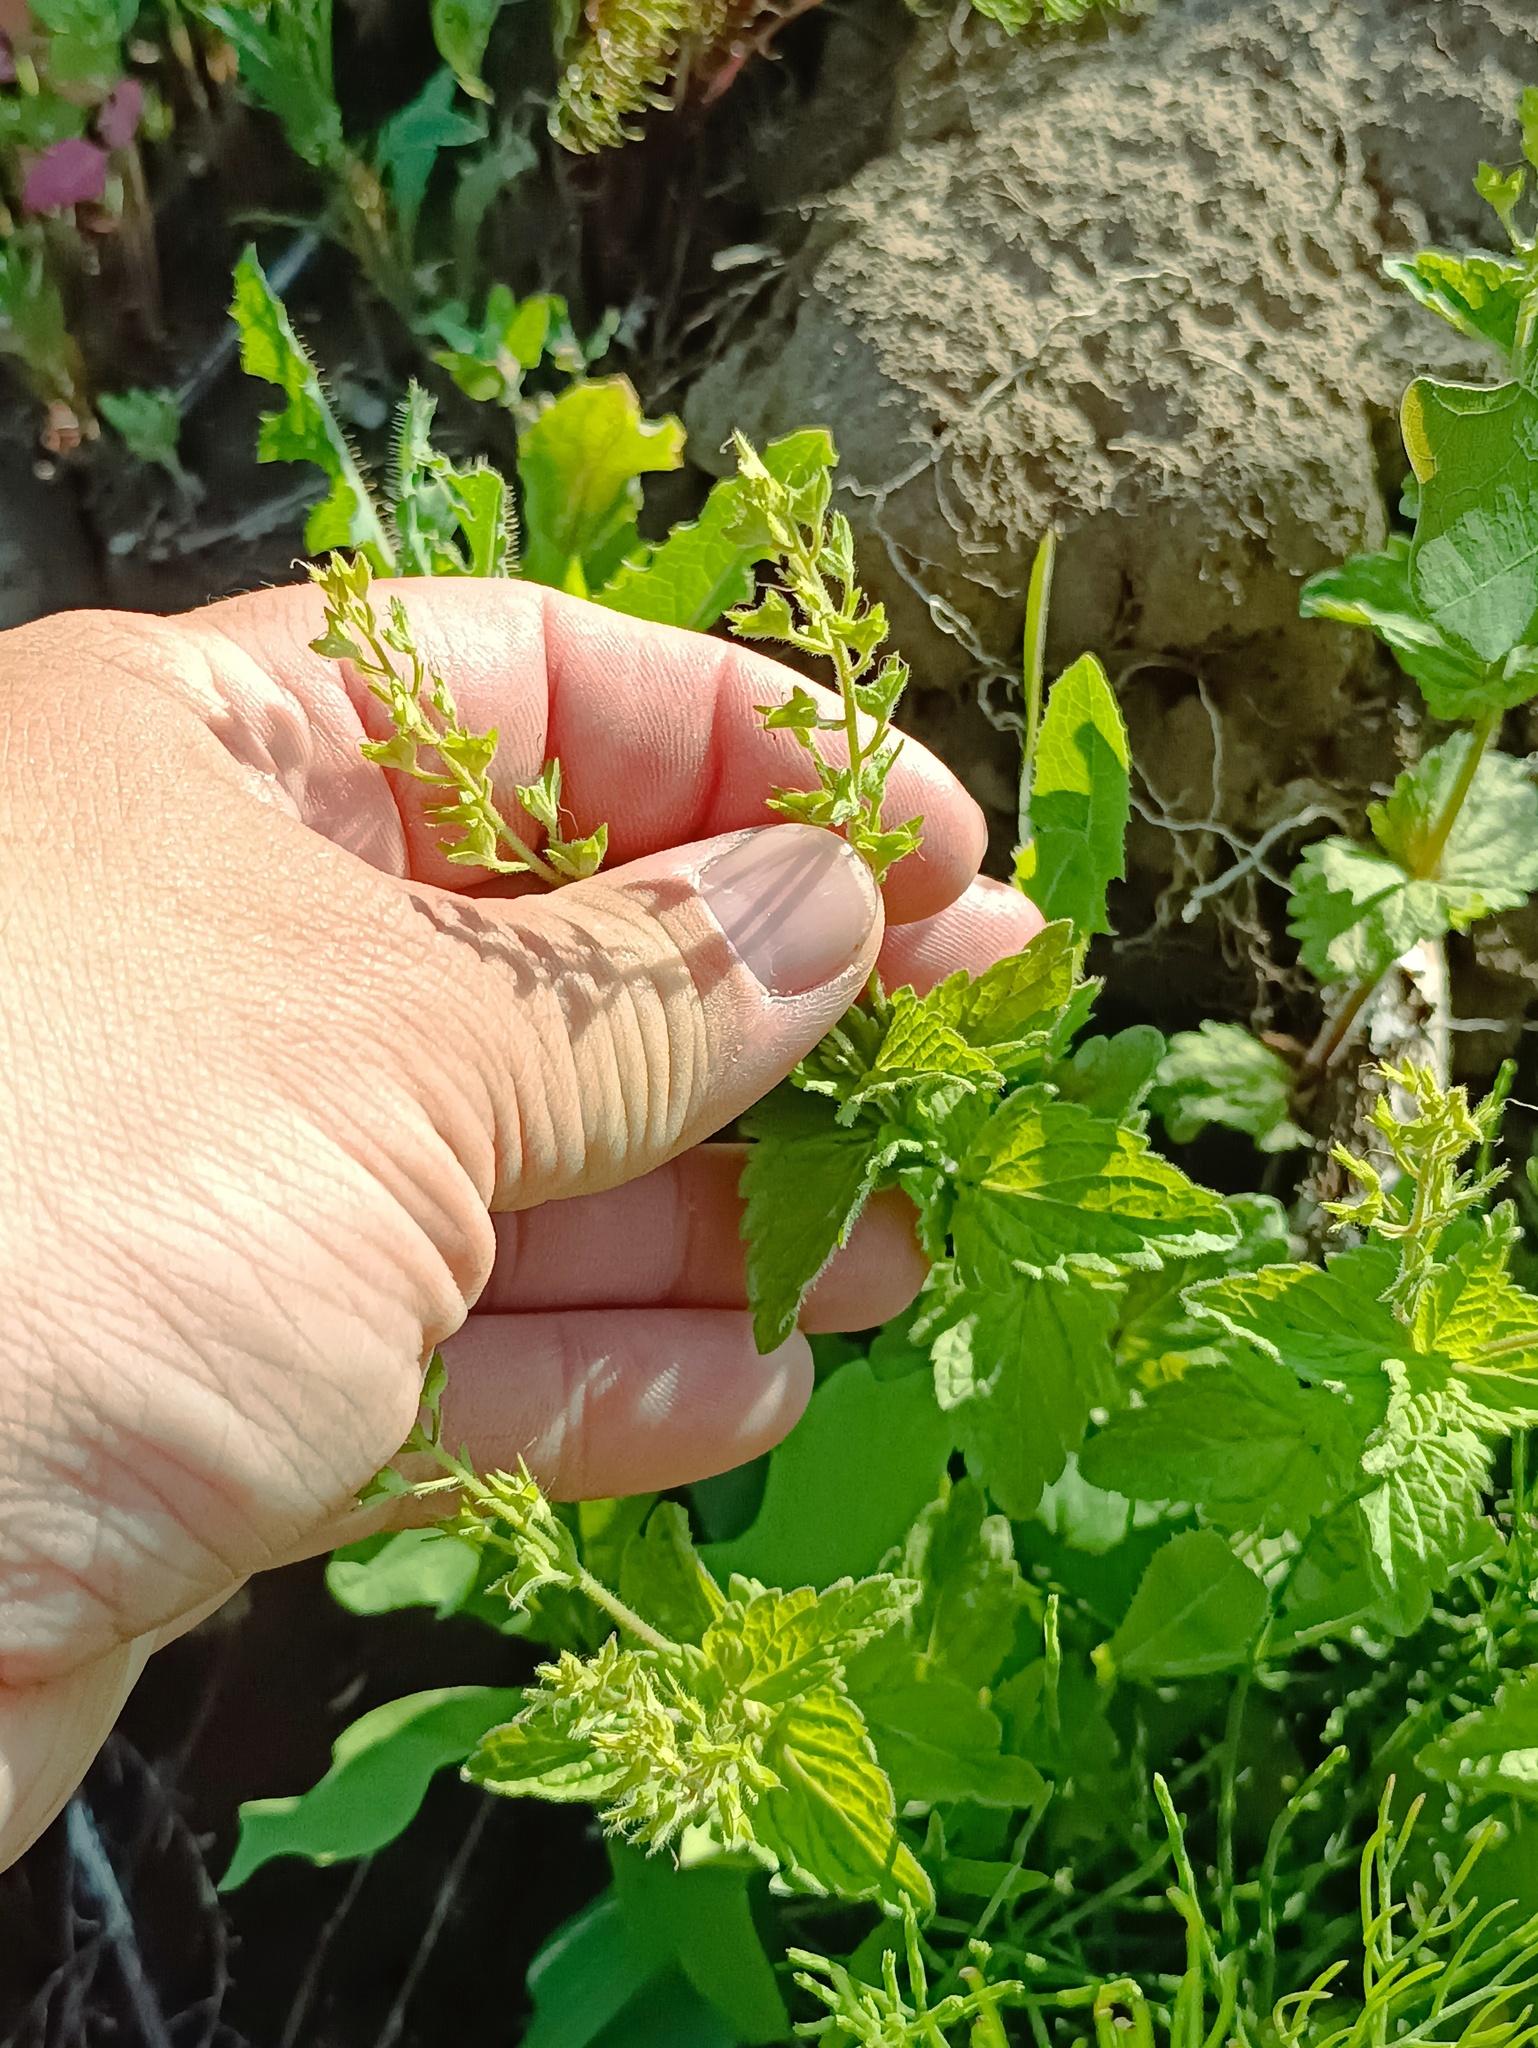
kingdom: Plantae
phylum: Tracheophyta
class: Magnoliopsida
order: Lamiales
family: Plantaginaceae
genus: Veronica
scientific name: Veronica chamaedrys
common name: Germander speedwell
